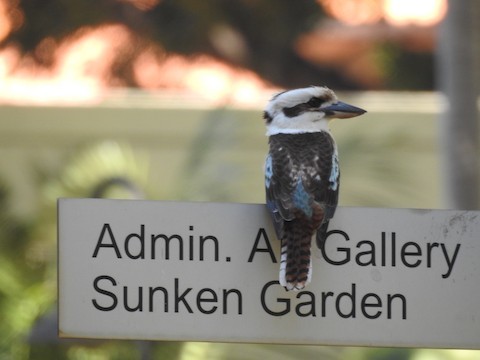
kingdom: Animalia
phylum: Chordata
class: Aves
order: Coraciiformes
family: Alcedinidae
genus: Dacelo
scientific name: Dacelo novaeguineae
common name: Laughing kookaburra
